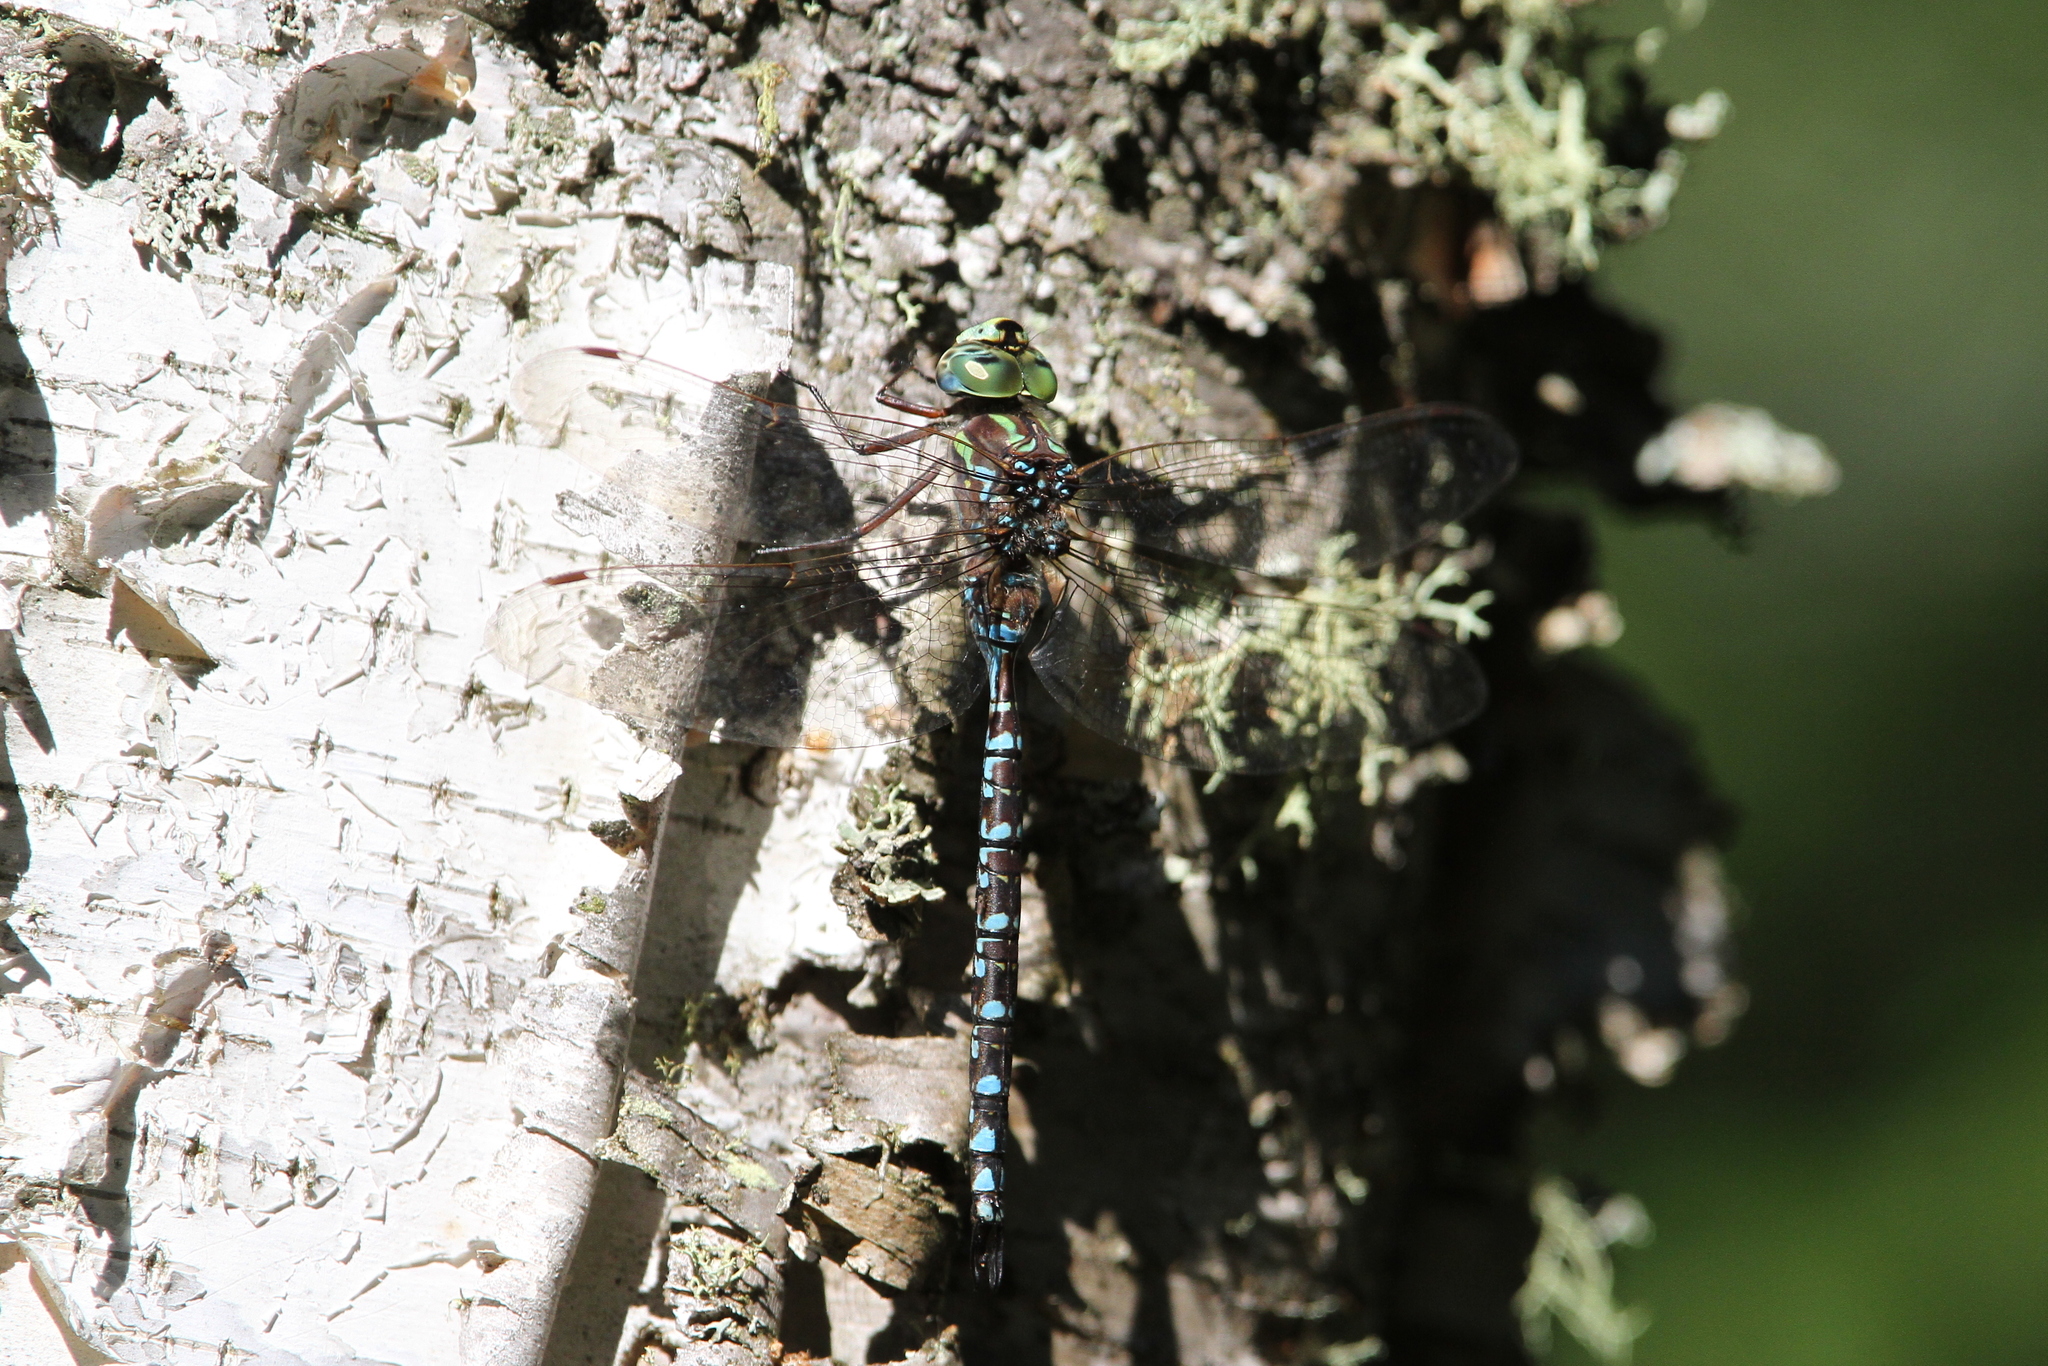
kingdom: Animalia
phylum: Arthropoda
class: Insecta
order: Odonata
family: Aeshnidae
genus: Aeshna
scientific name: Aeshna canadensis
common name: Canada darner
